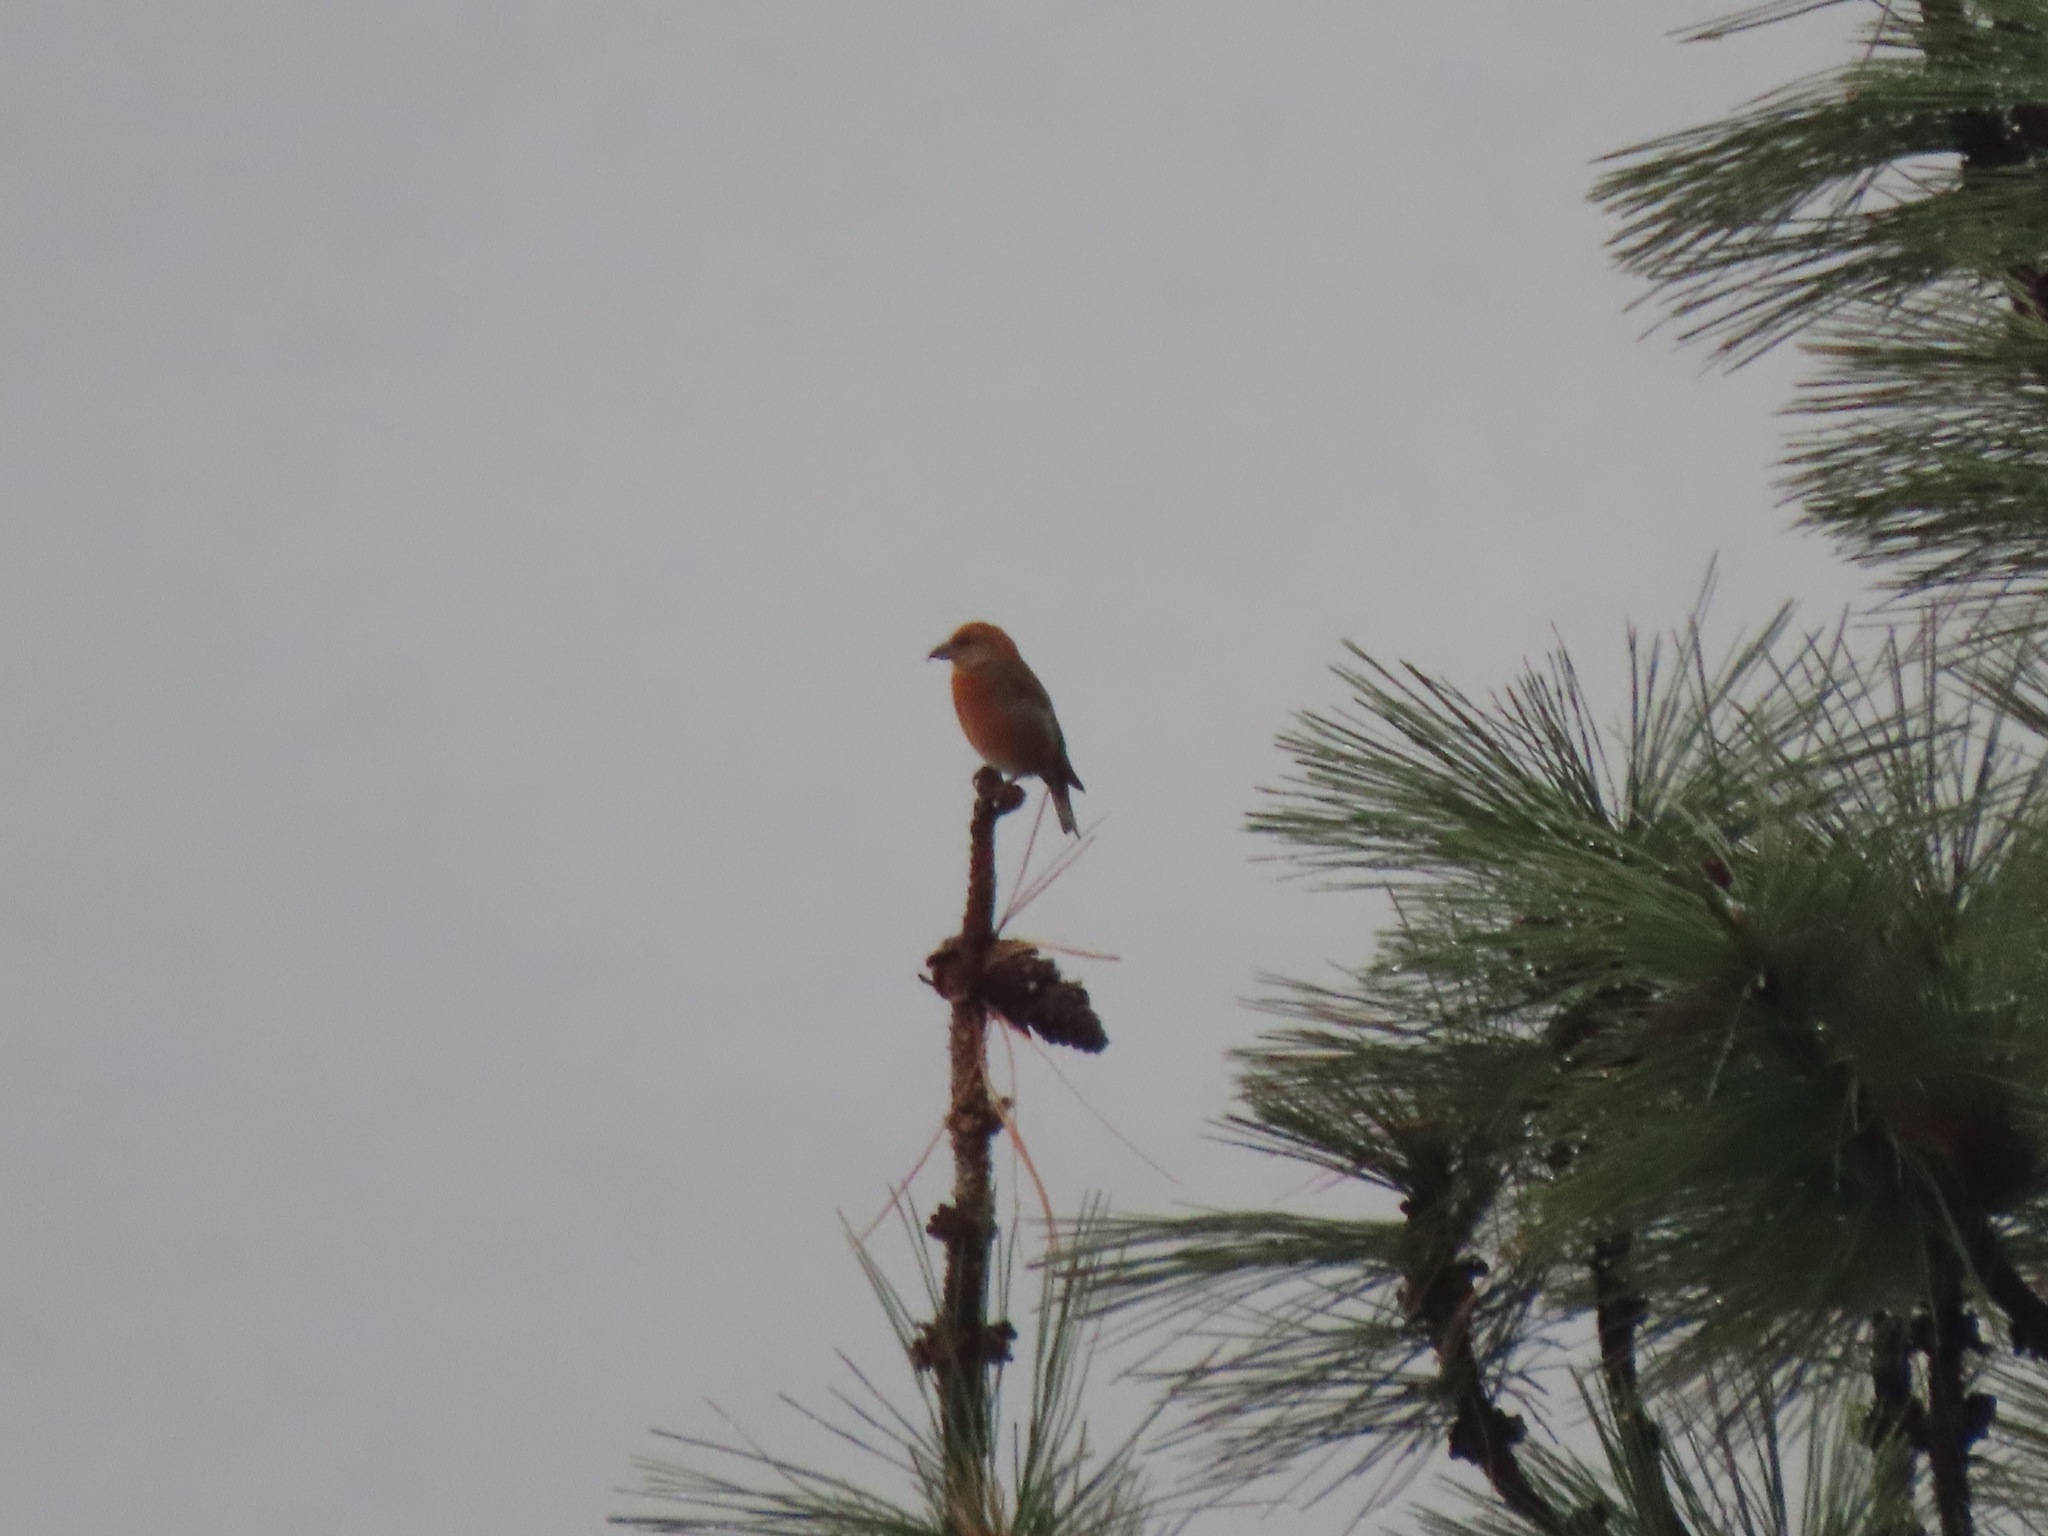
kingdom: Animalia
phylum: Chordata
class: Aves
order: Passeriformes
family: Fringillidae
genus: Loxia
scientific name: Loxia curvirostra
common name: Red crossbill
